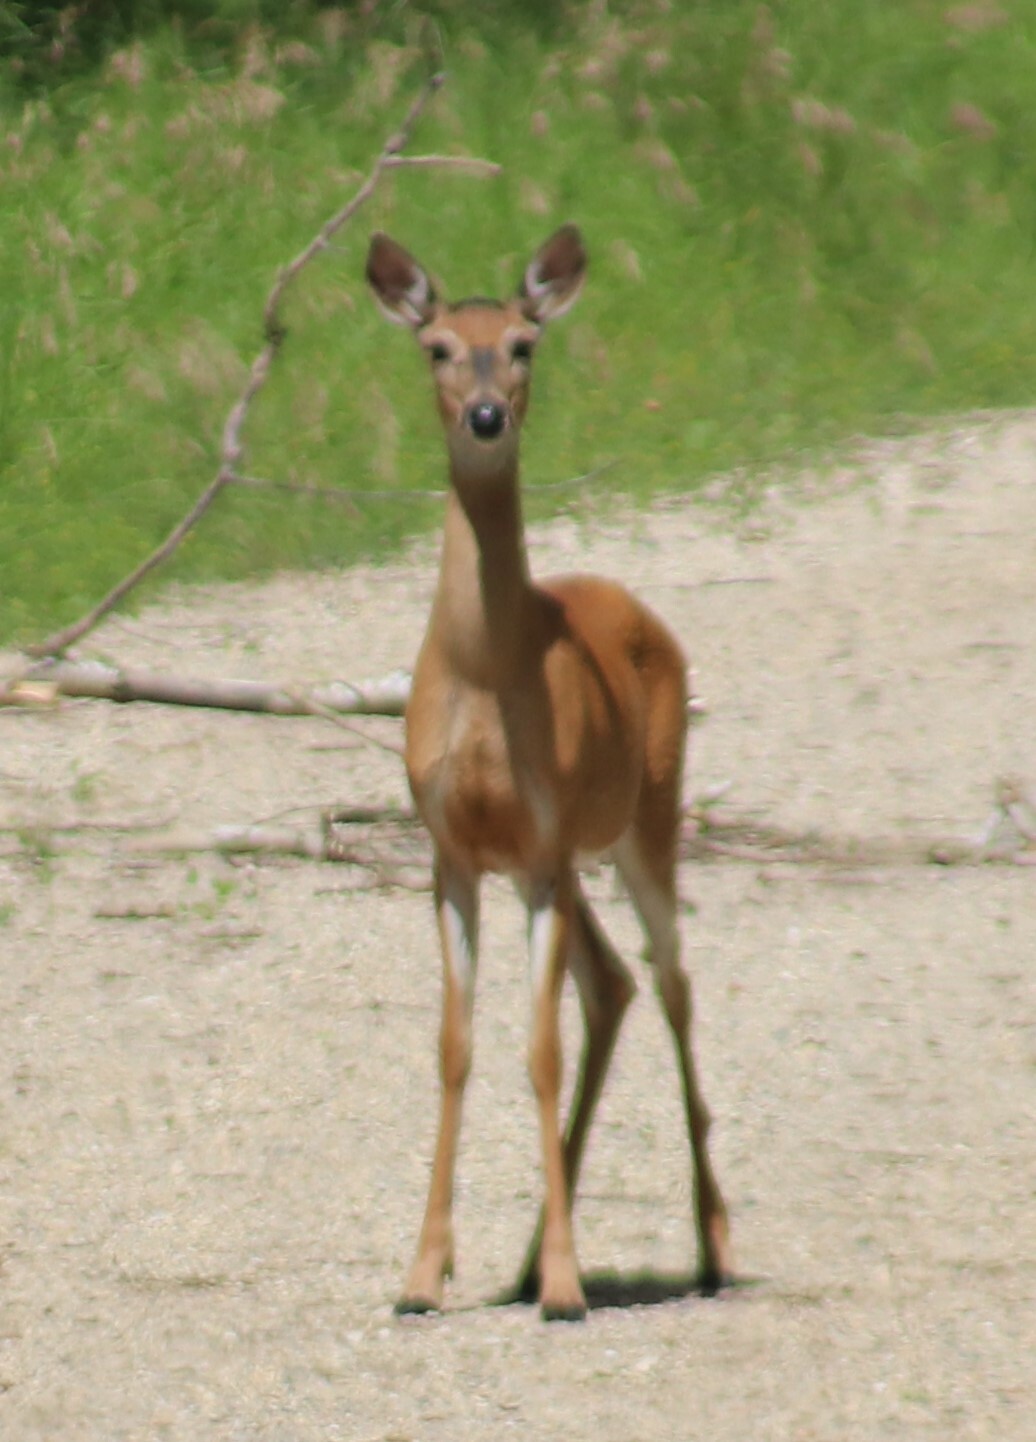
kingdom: Animalia
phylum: Chordata
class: Mammalia
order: Artiodactyla
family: Cervidae
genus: Odocoileus
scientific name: Odocoileus virginianus
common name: White-tailed deer
